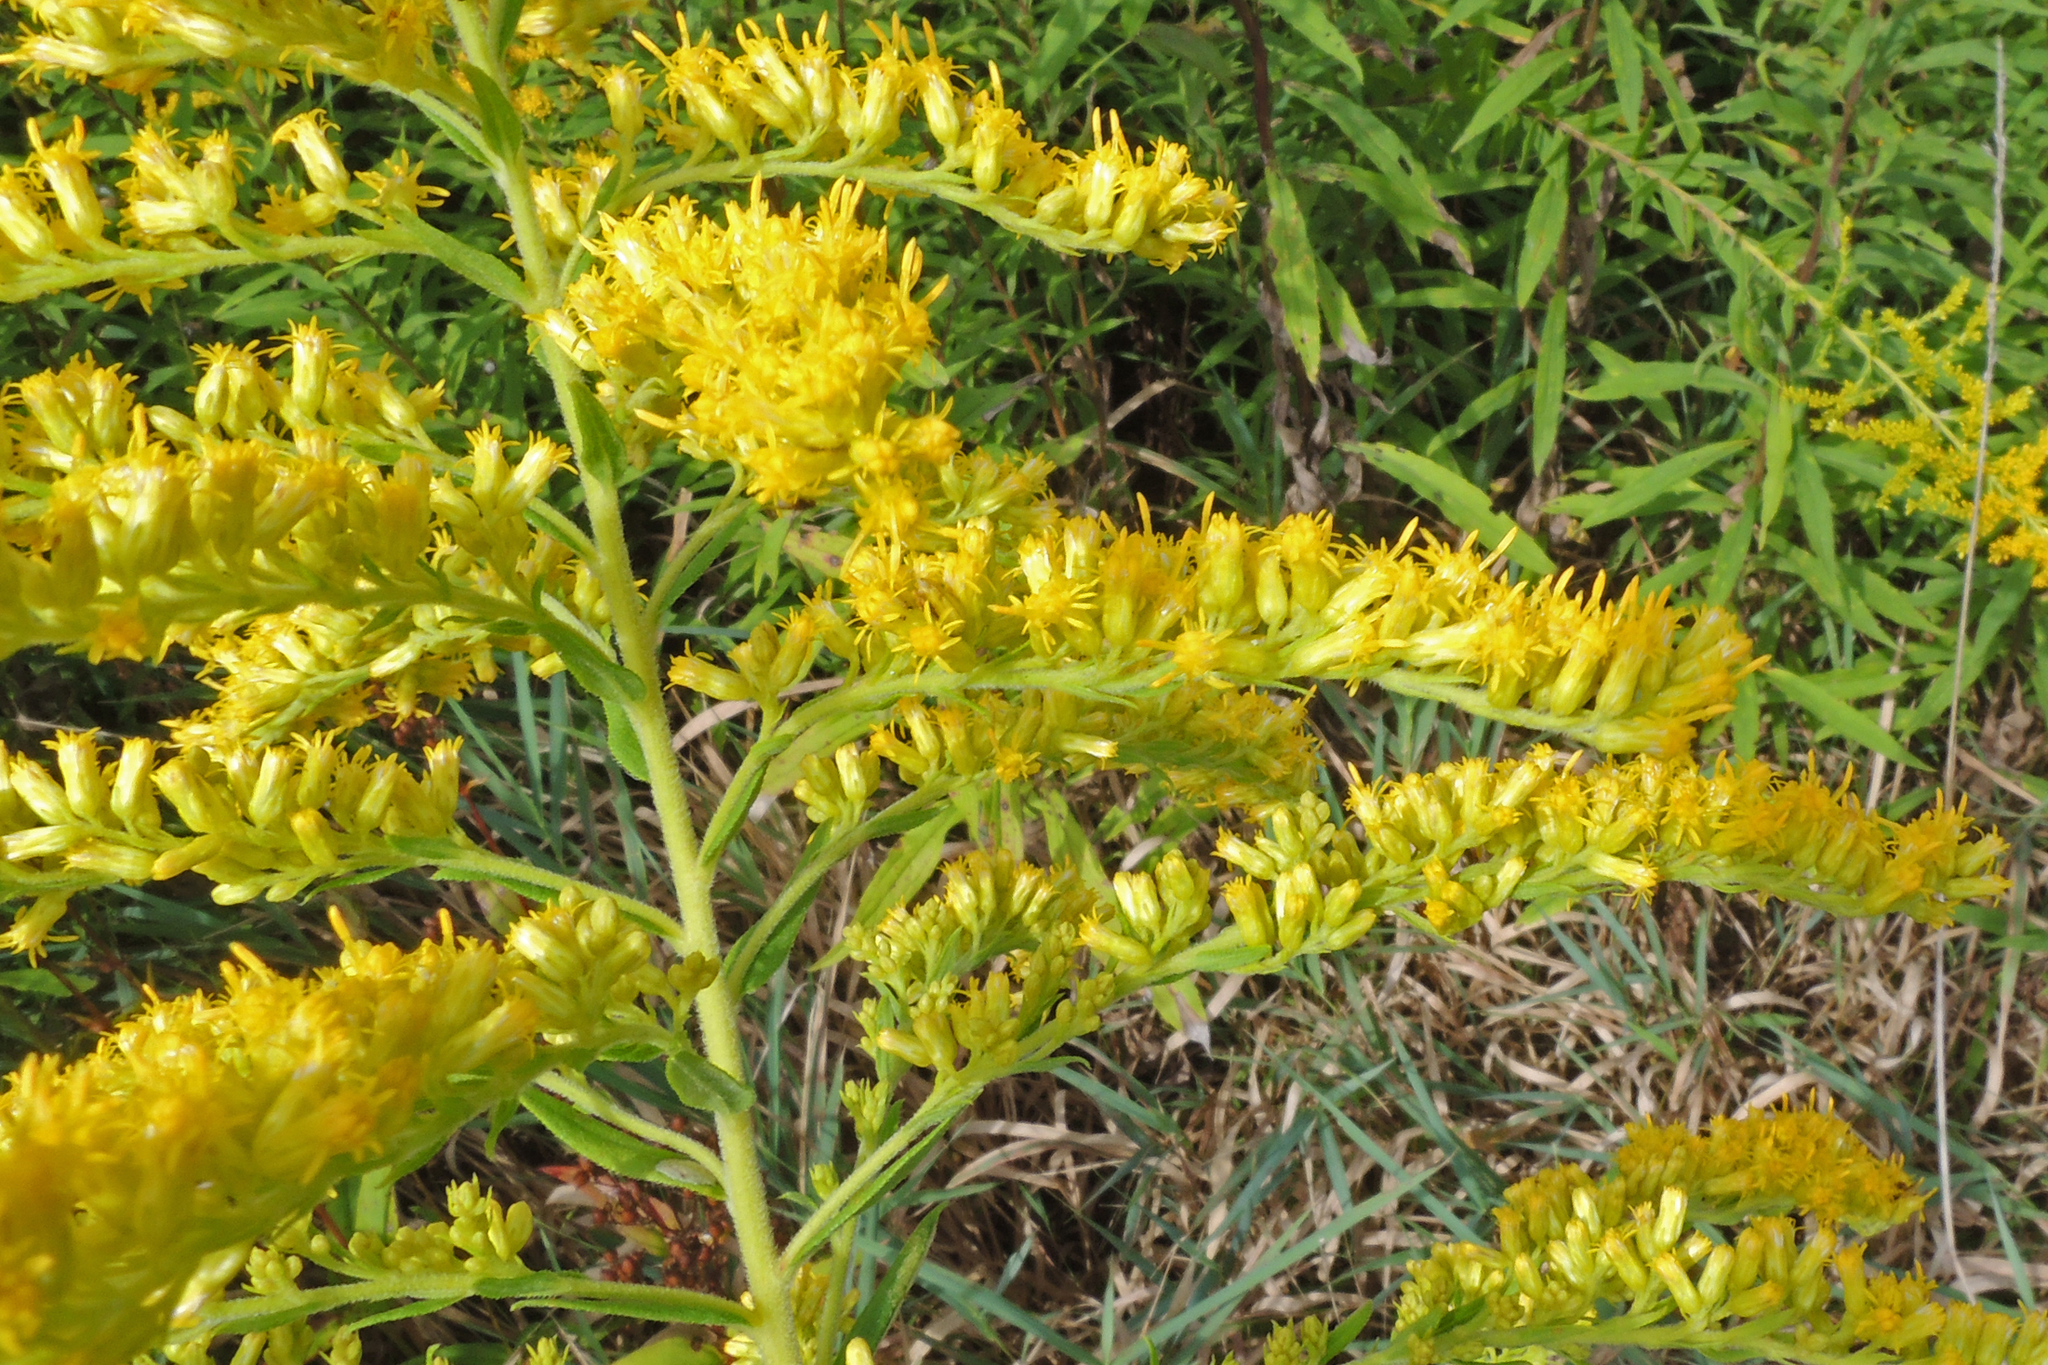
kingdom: Plantae
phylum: Tracheophyta
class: Magnoliopsida
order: Asterales
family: Asteraceae
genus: Solidago
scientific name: Solidago altissima
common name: Late goldenrod
